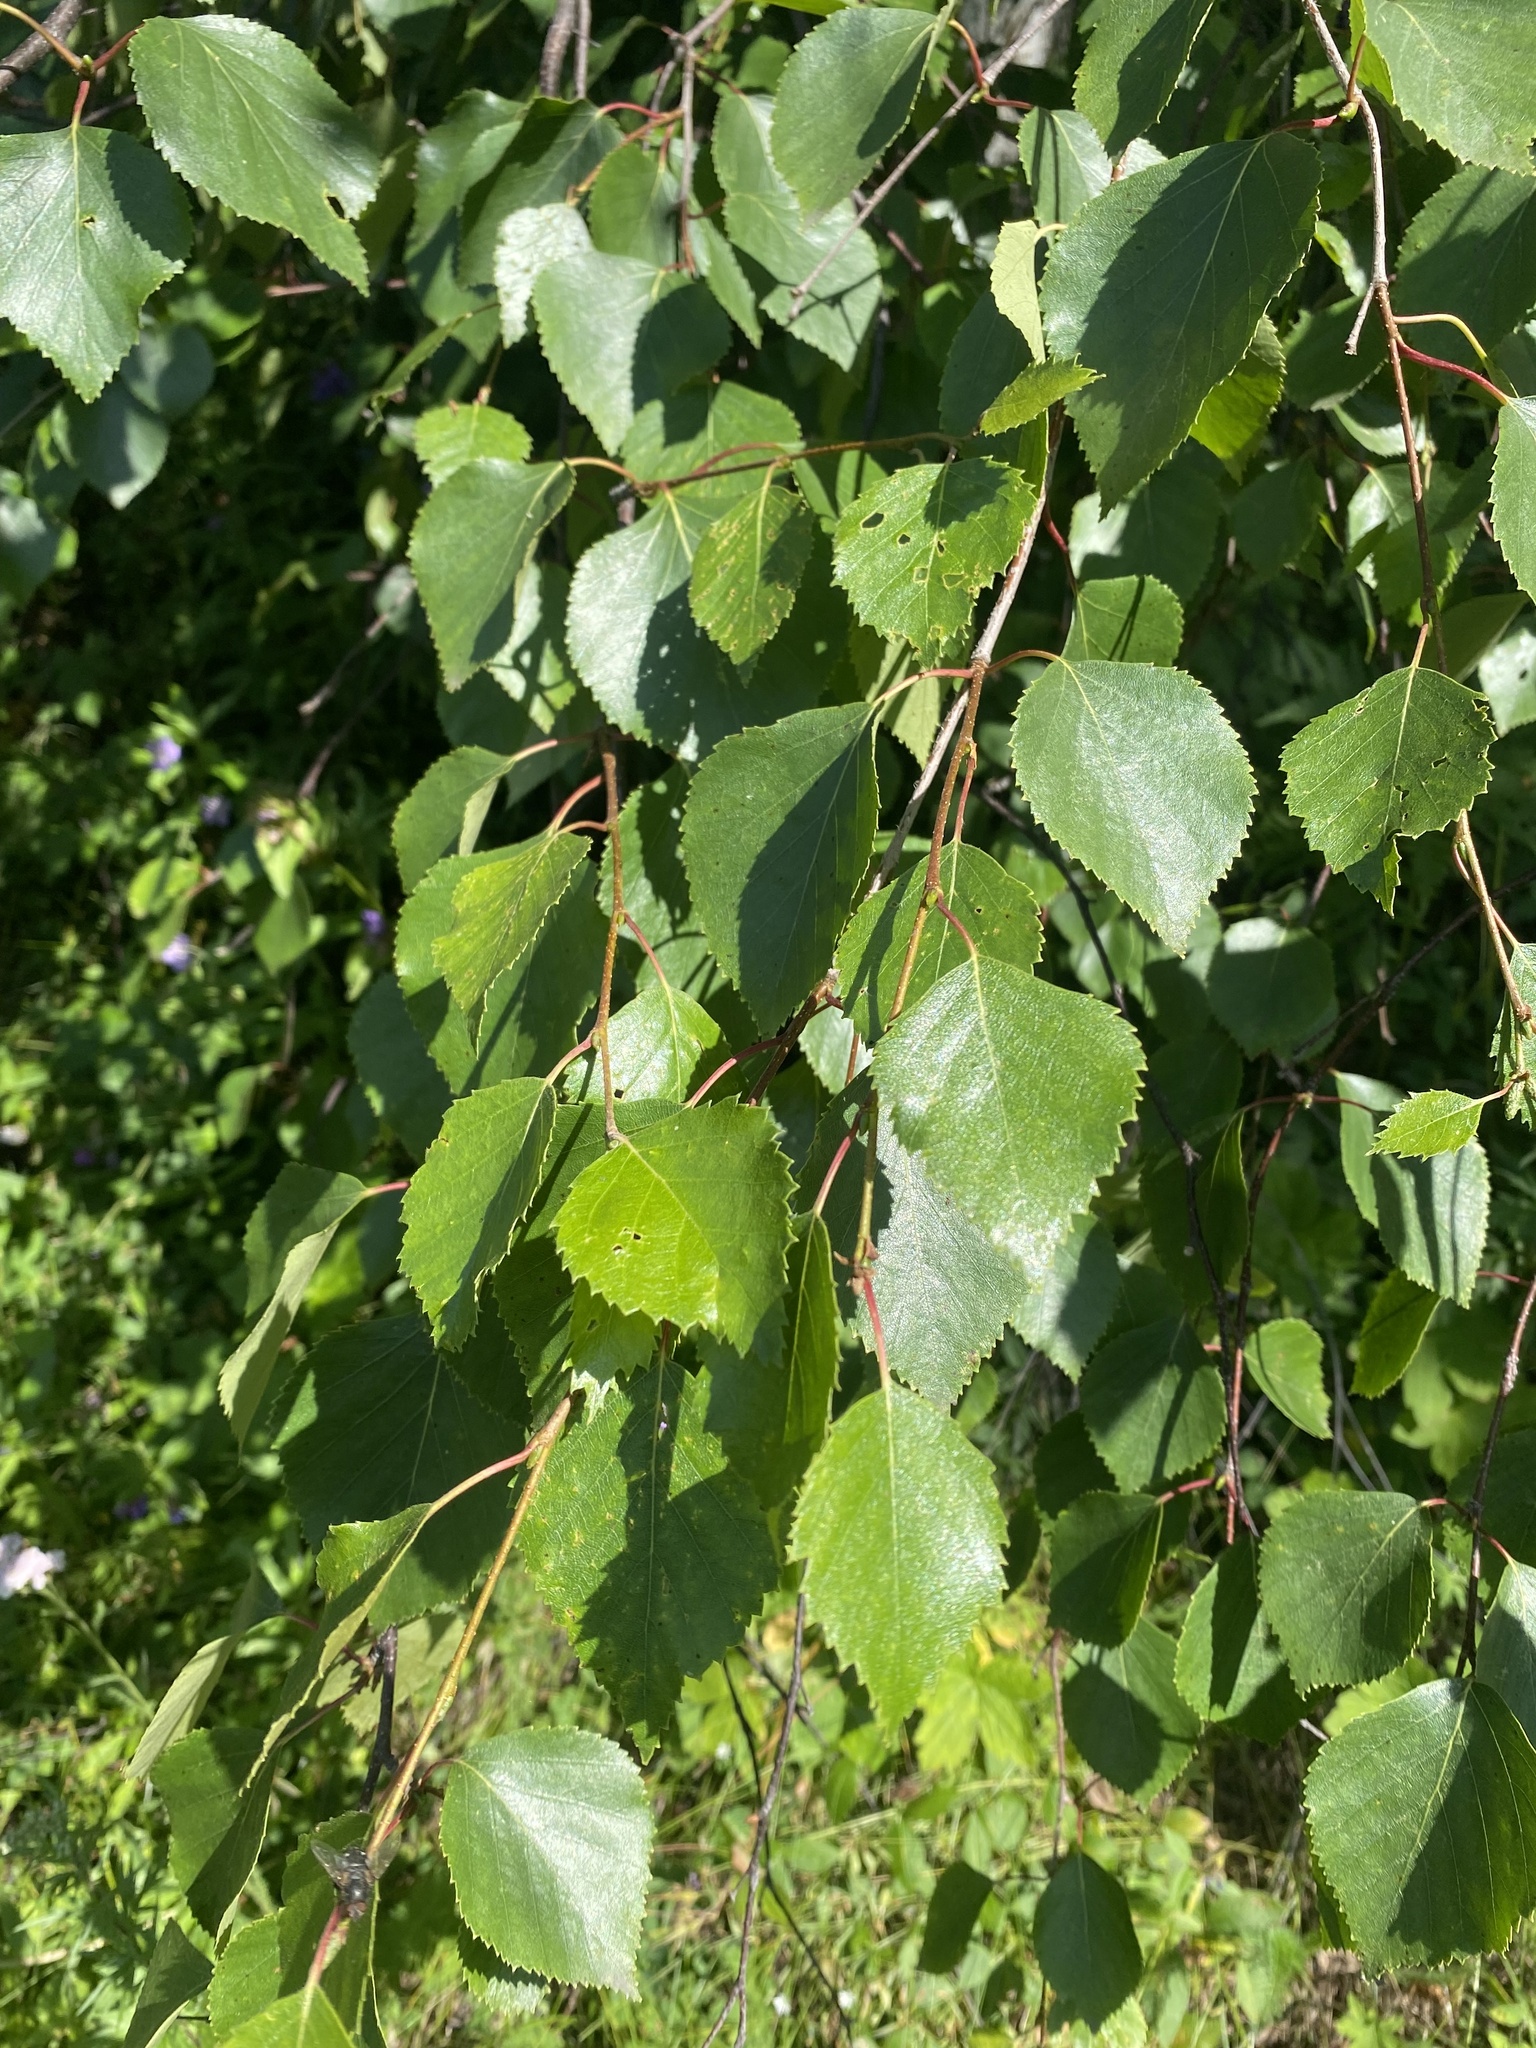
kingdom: Plantae
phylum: Tracheophyta
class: Magnoliopsida
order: Fagales
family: Betulaceae
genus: Betula
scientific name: Betula pendula
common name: Silver birch
